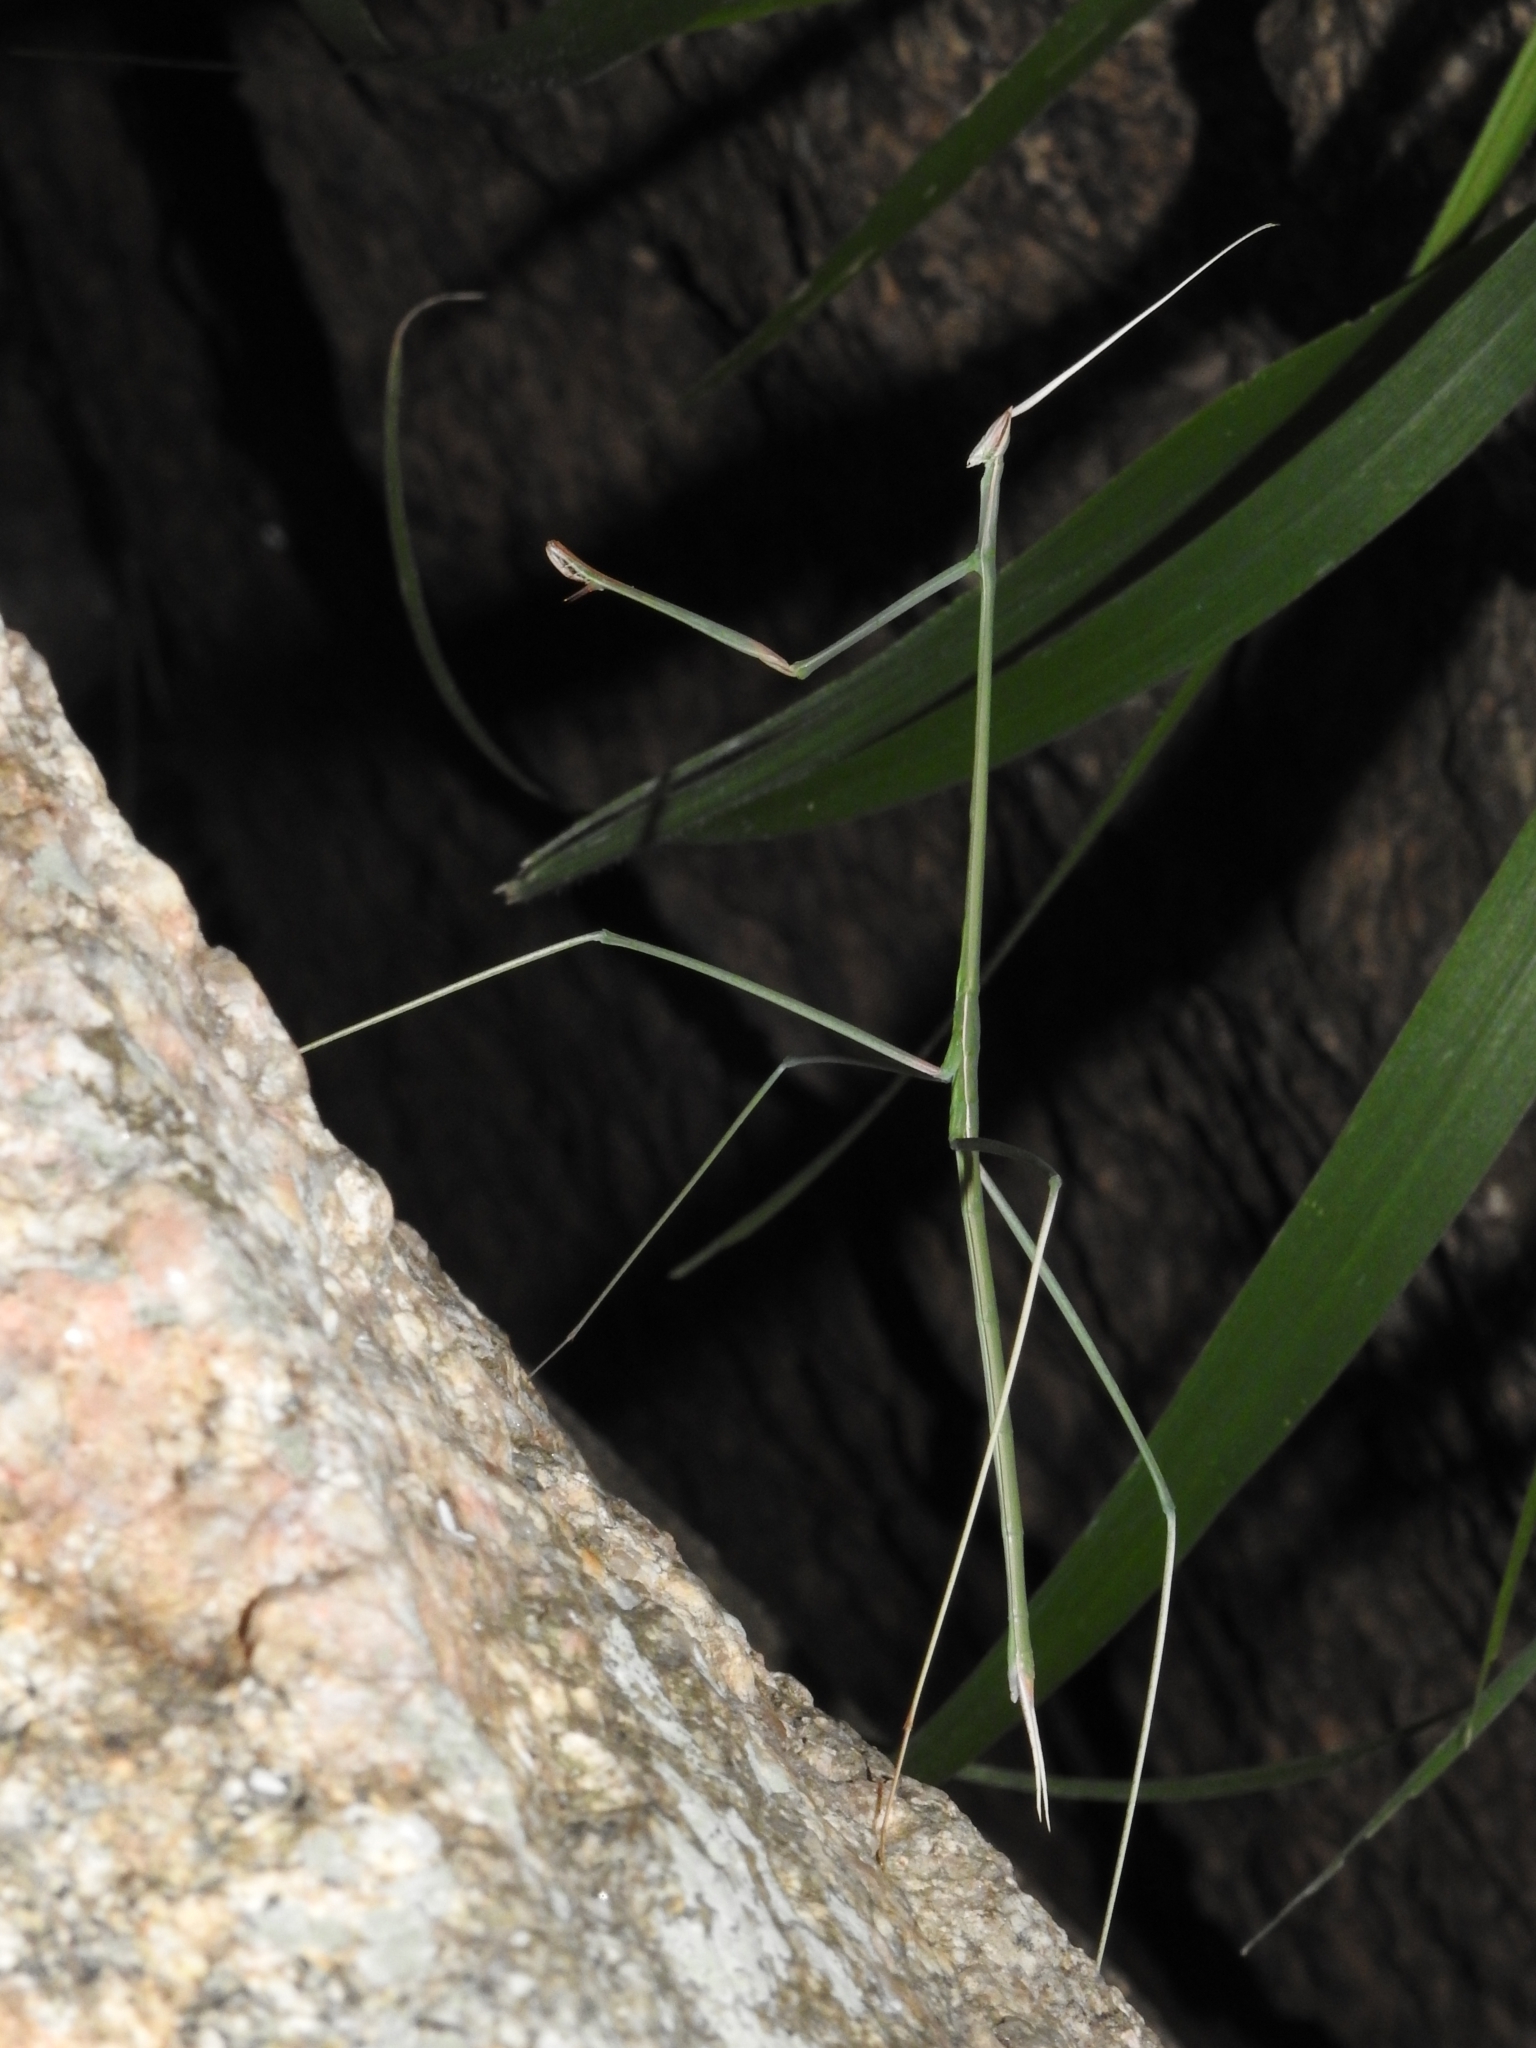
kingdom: Animalia
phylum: Arthropoda
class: Insecta
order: Mantodea
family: Eremiaphilidae
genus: Schizocephala
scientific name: Schizocephala bicornis
